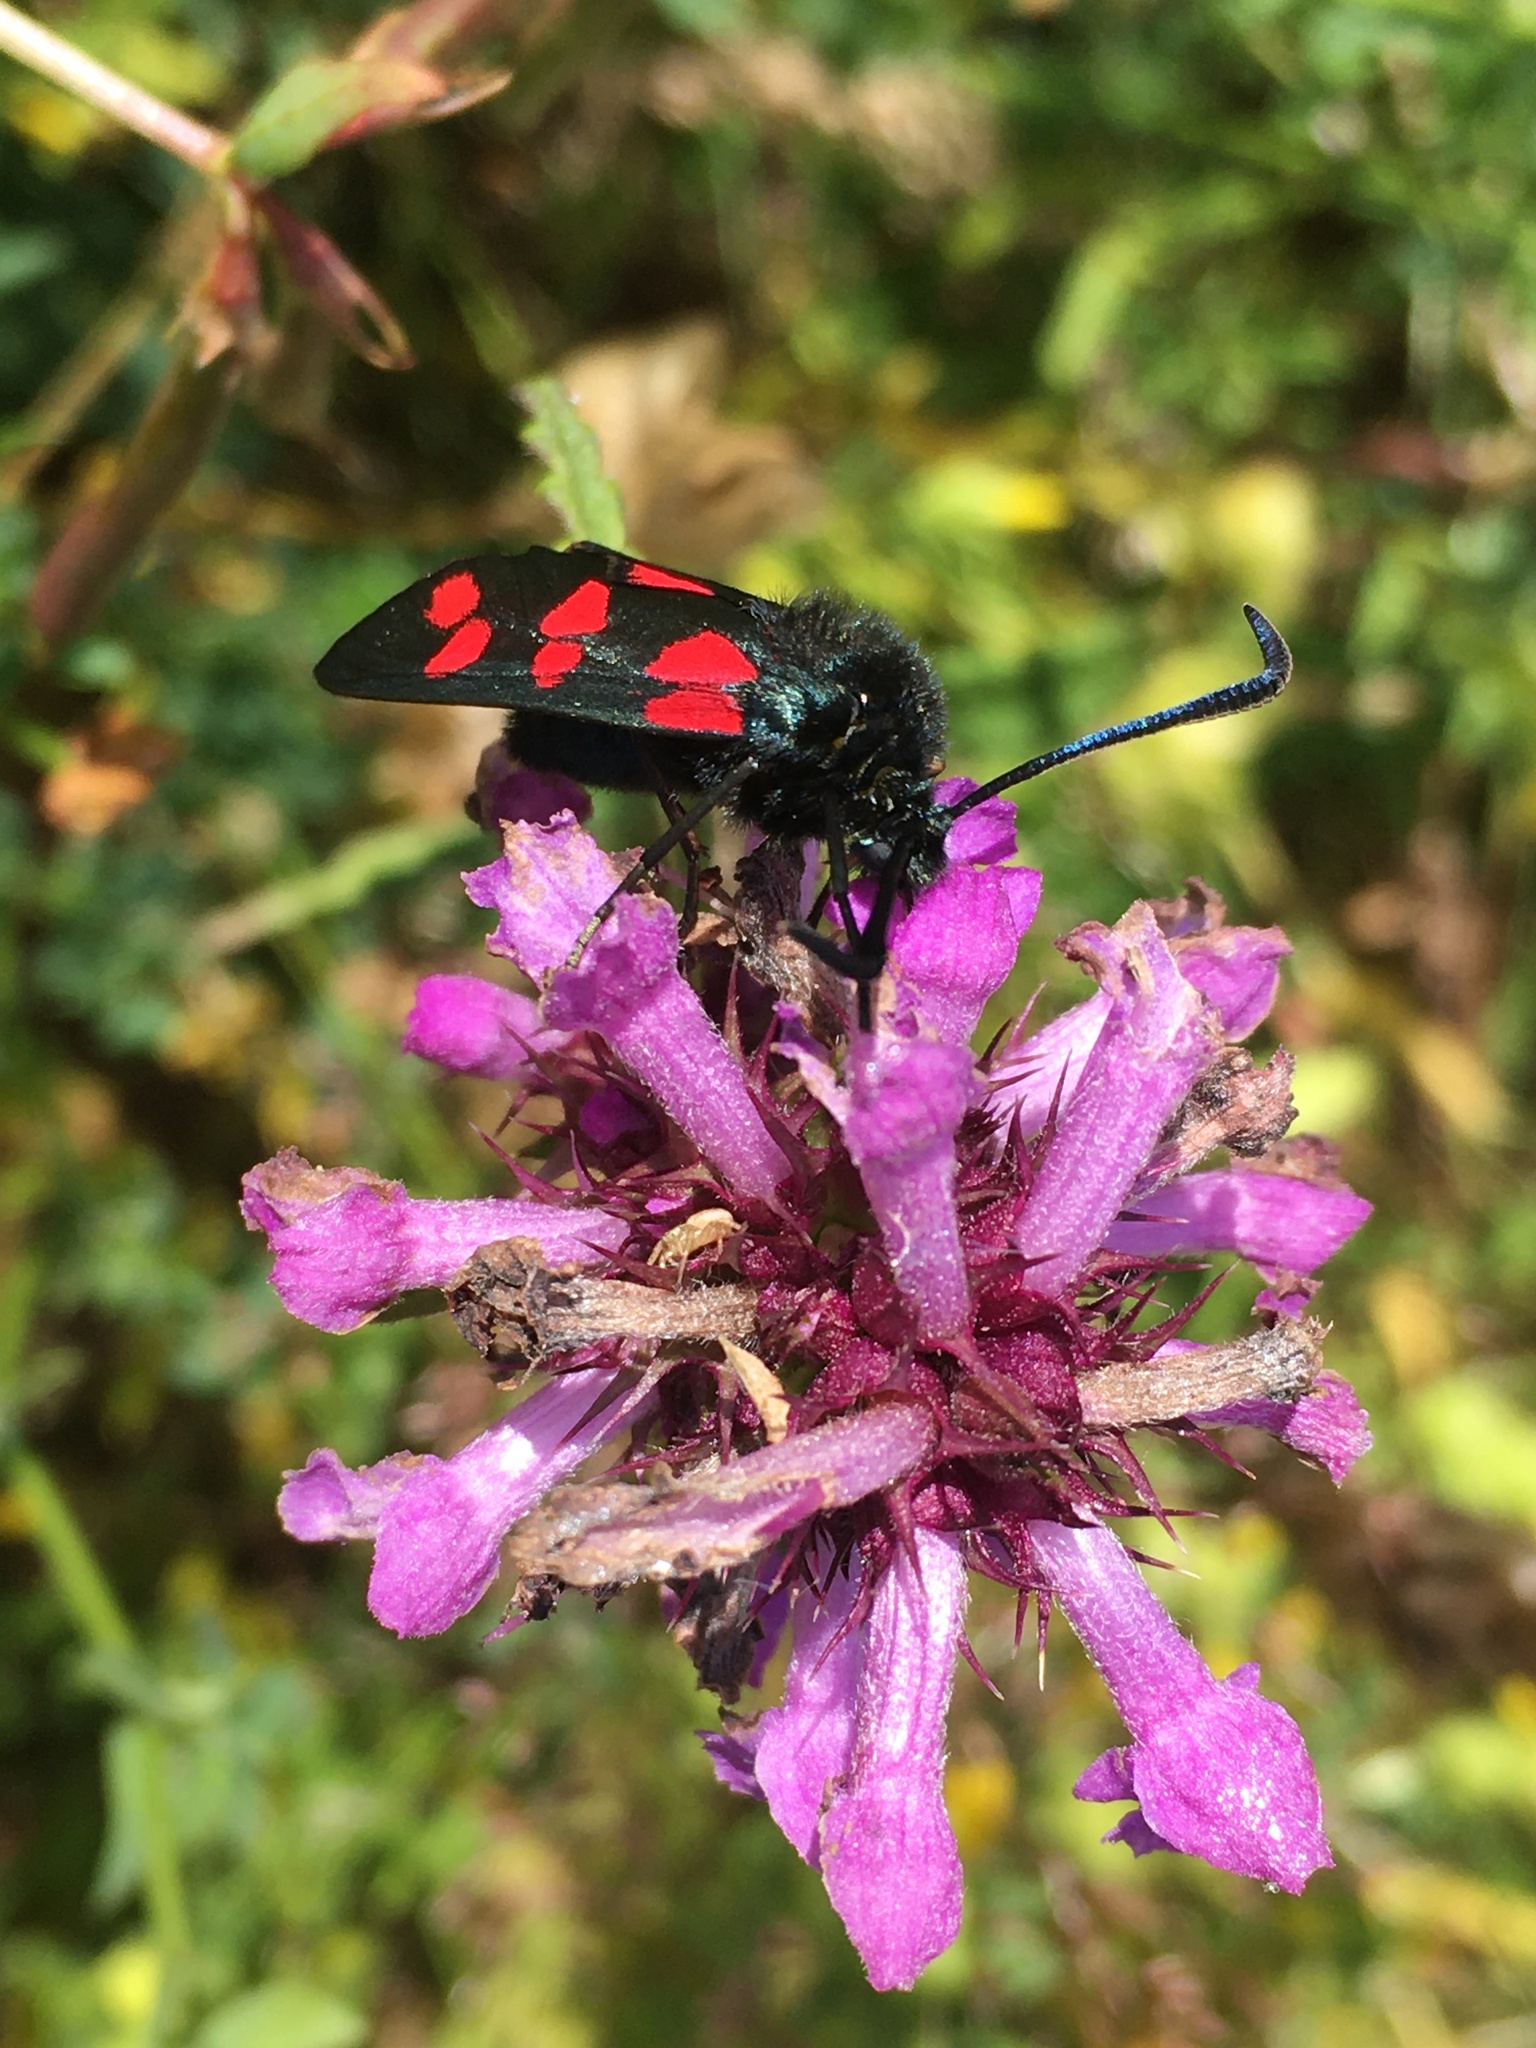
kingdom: Animalia
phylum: Arthropoda
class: Insecta
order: Lepidoptera
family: Zygaenidae
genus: Zygaena
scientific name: Zygaena filipendulae
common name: Six-spot burnet
